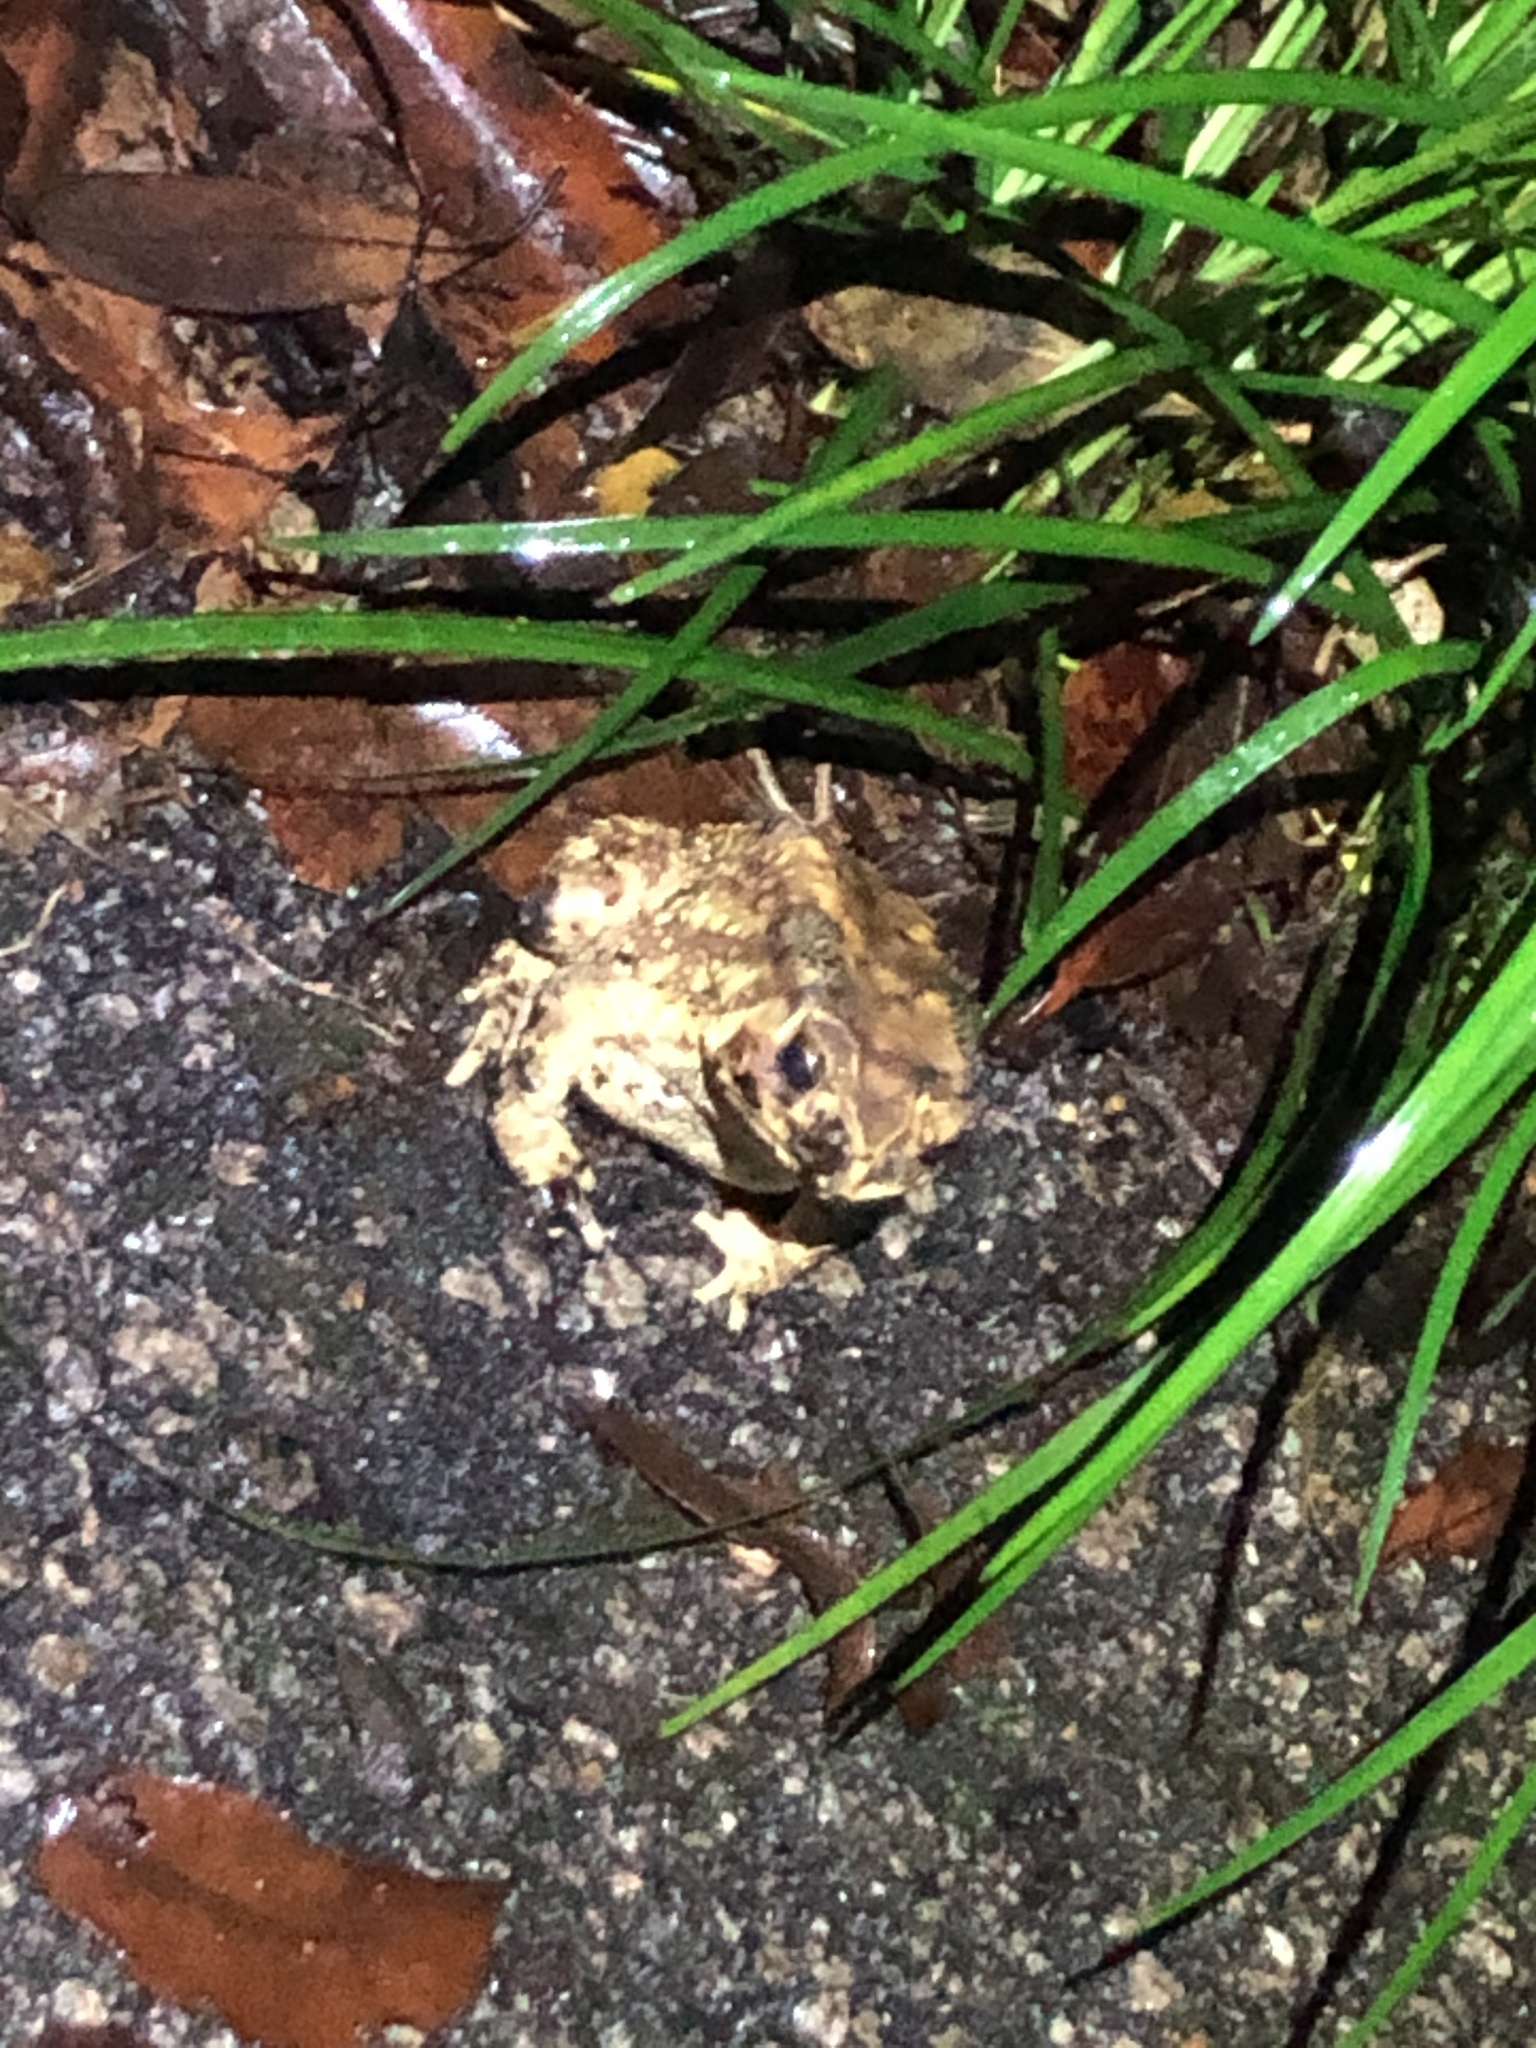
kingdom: Animalia
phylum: Chordata
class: Amphibia
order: Anura
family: Bufonidae
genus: Duttaphrynus
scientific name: Duttaphrynus melanostictus
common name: Common sunda toad
